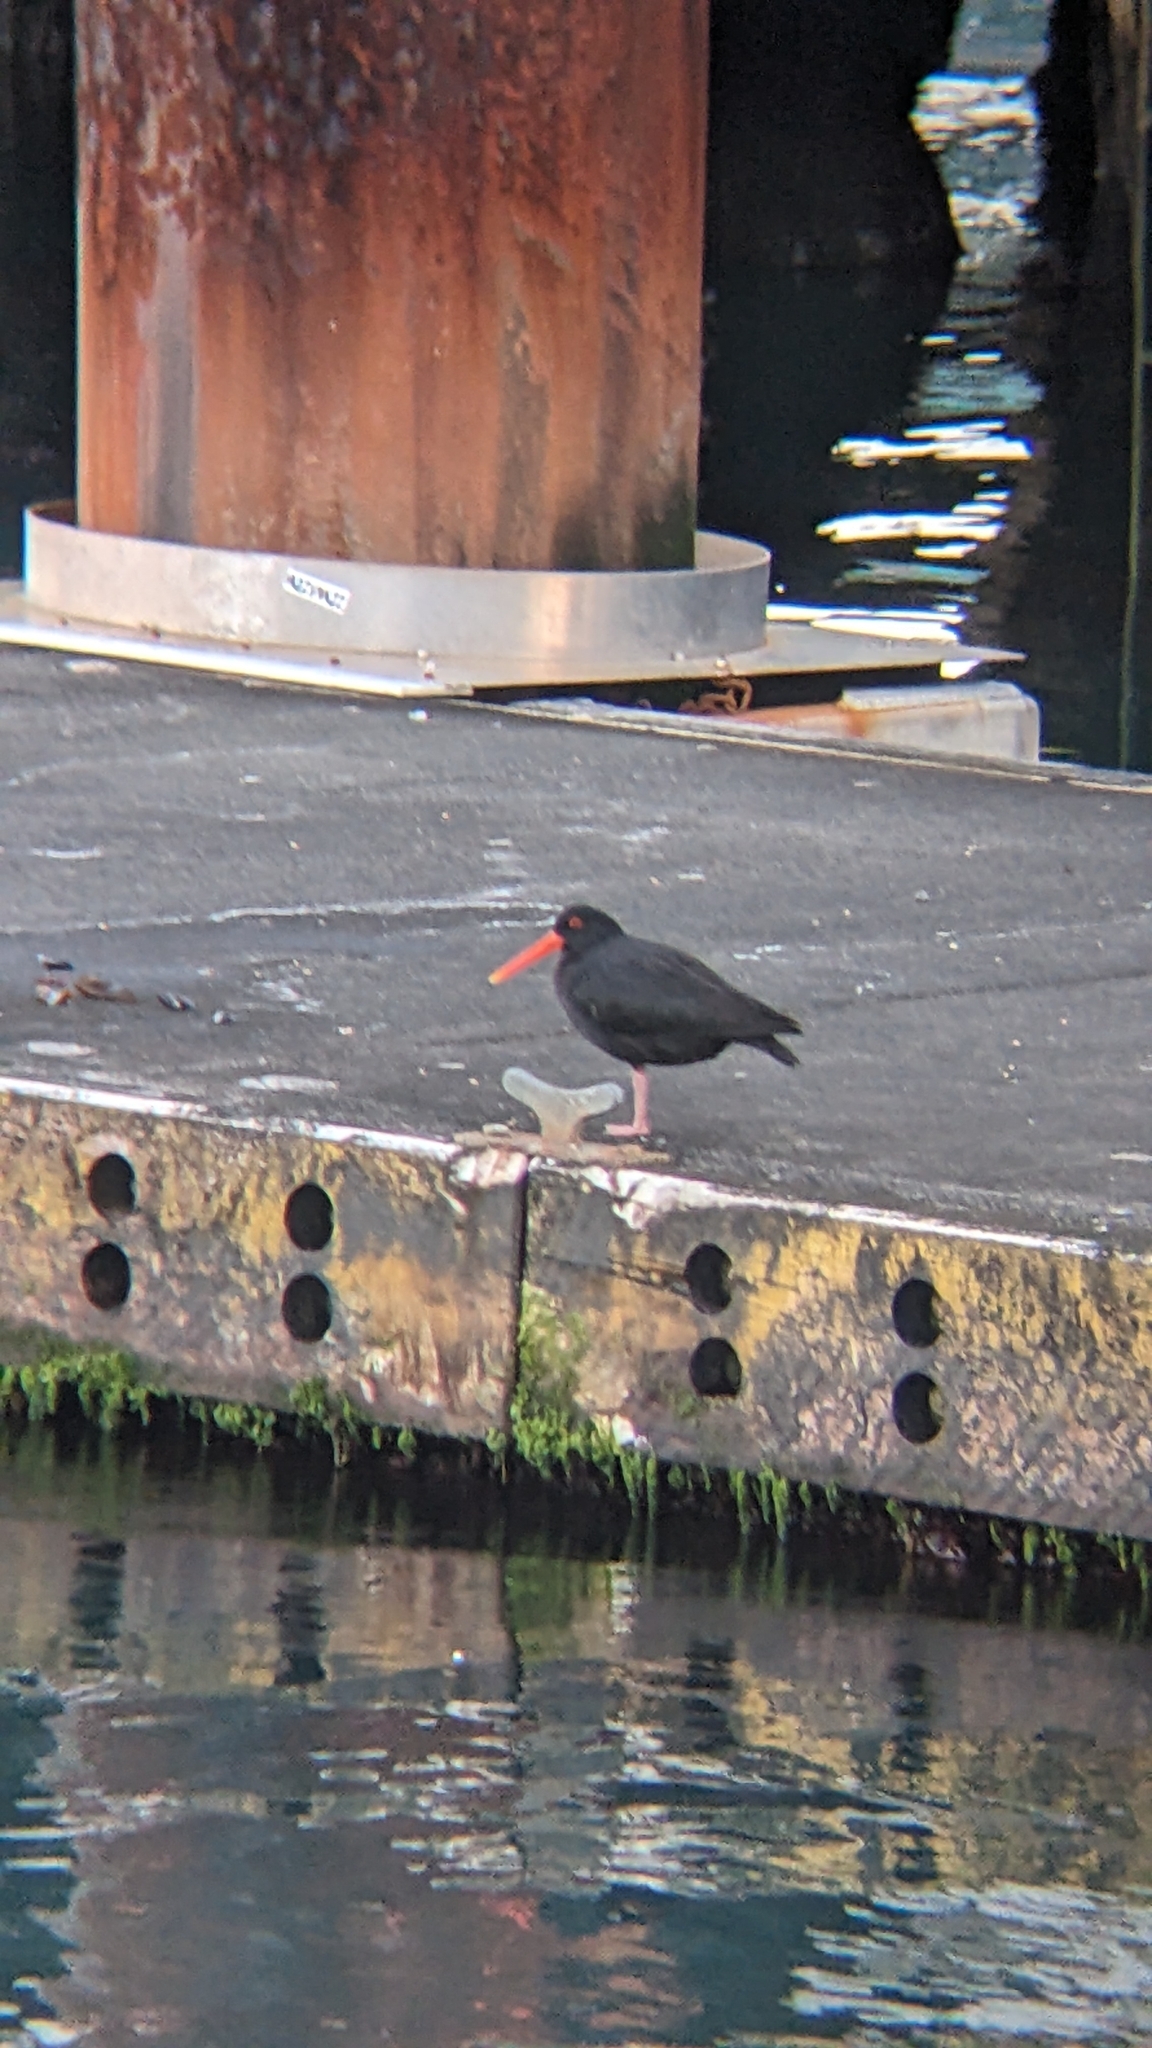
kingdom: Animalia
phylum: Chordata
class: Aves
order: Charadriiformes
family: Haematopodidae
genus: Haematopus
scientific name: Haematopus unicolor
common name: Variable oystercatcher
